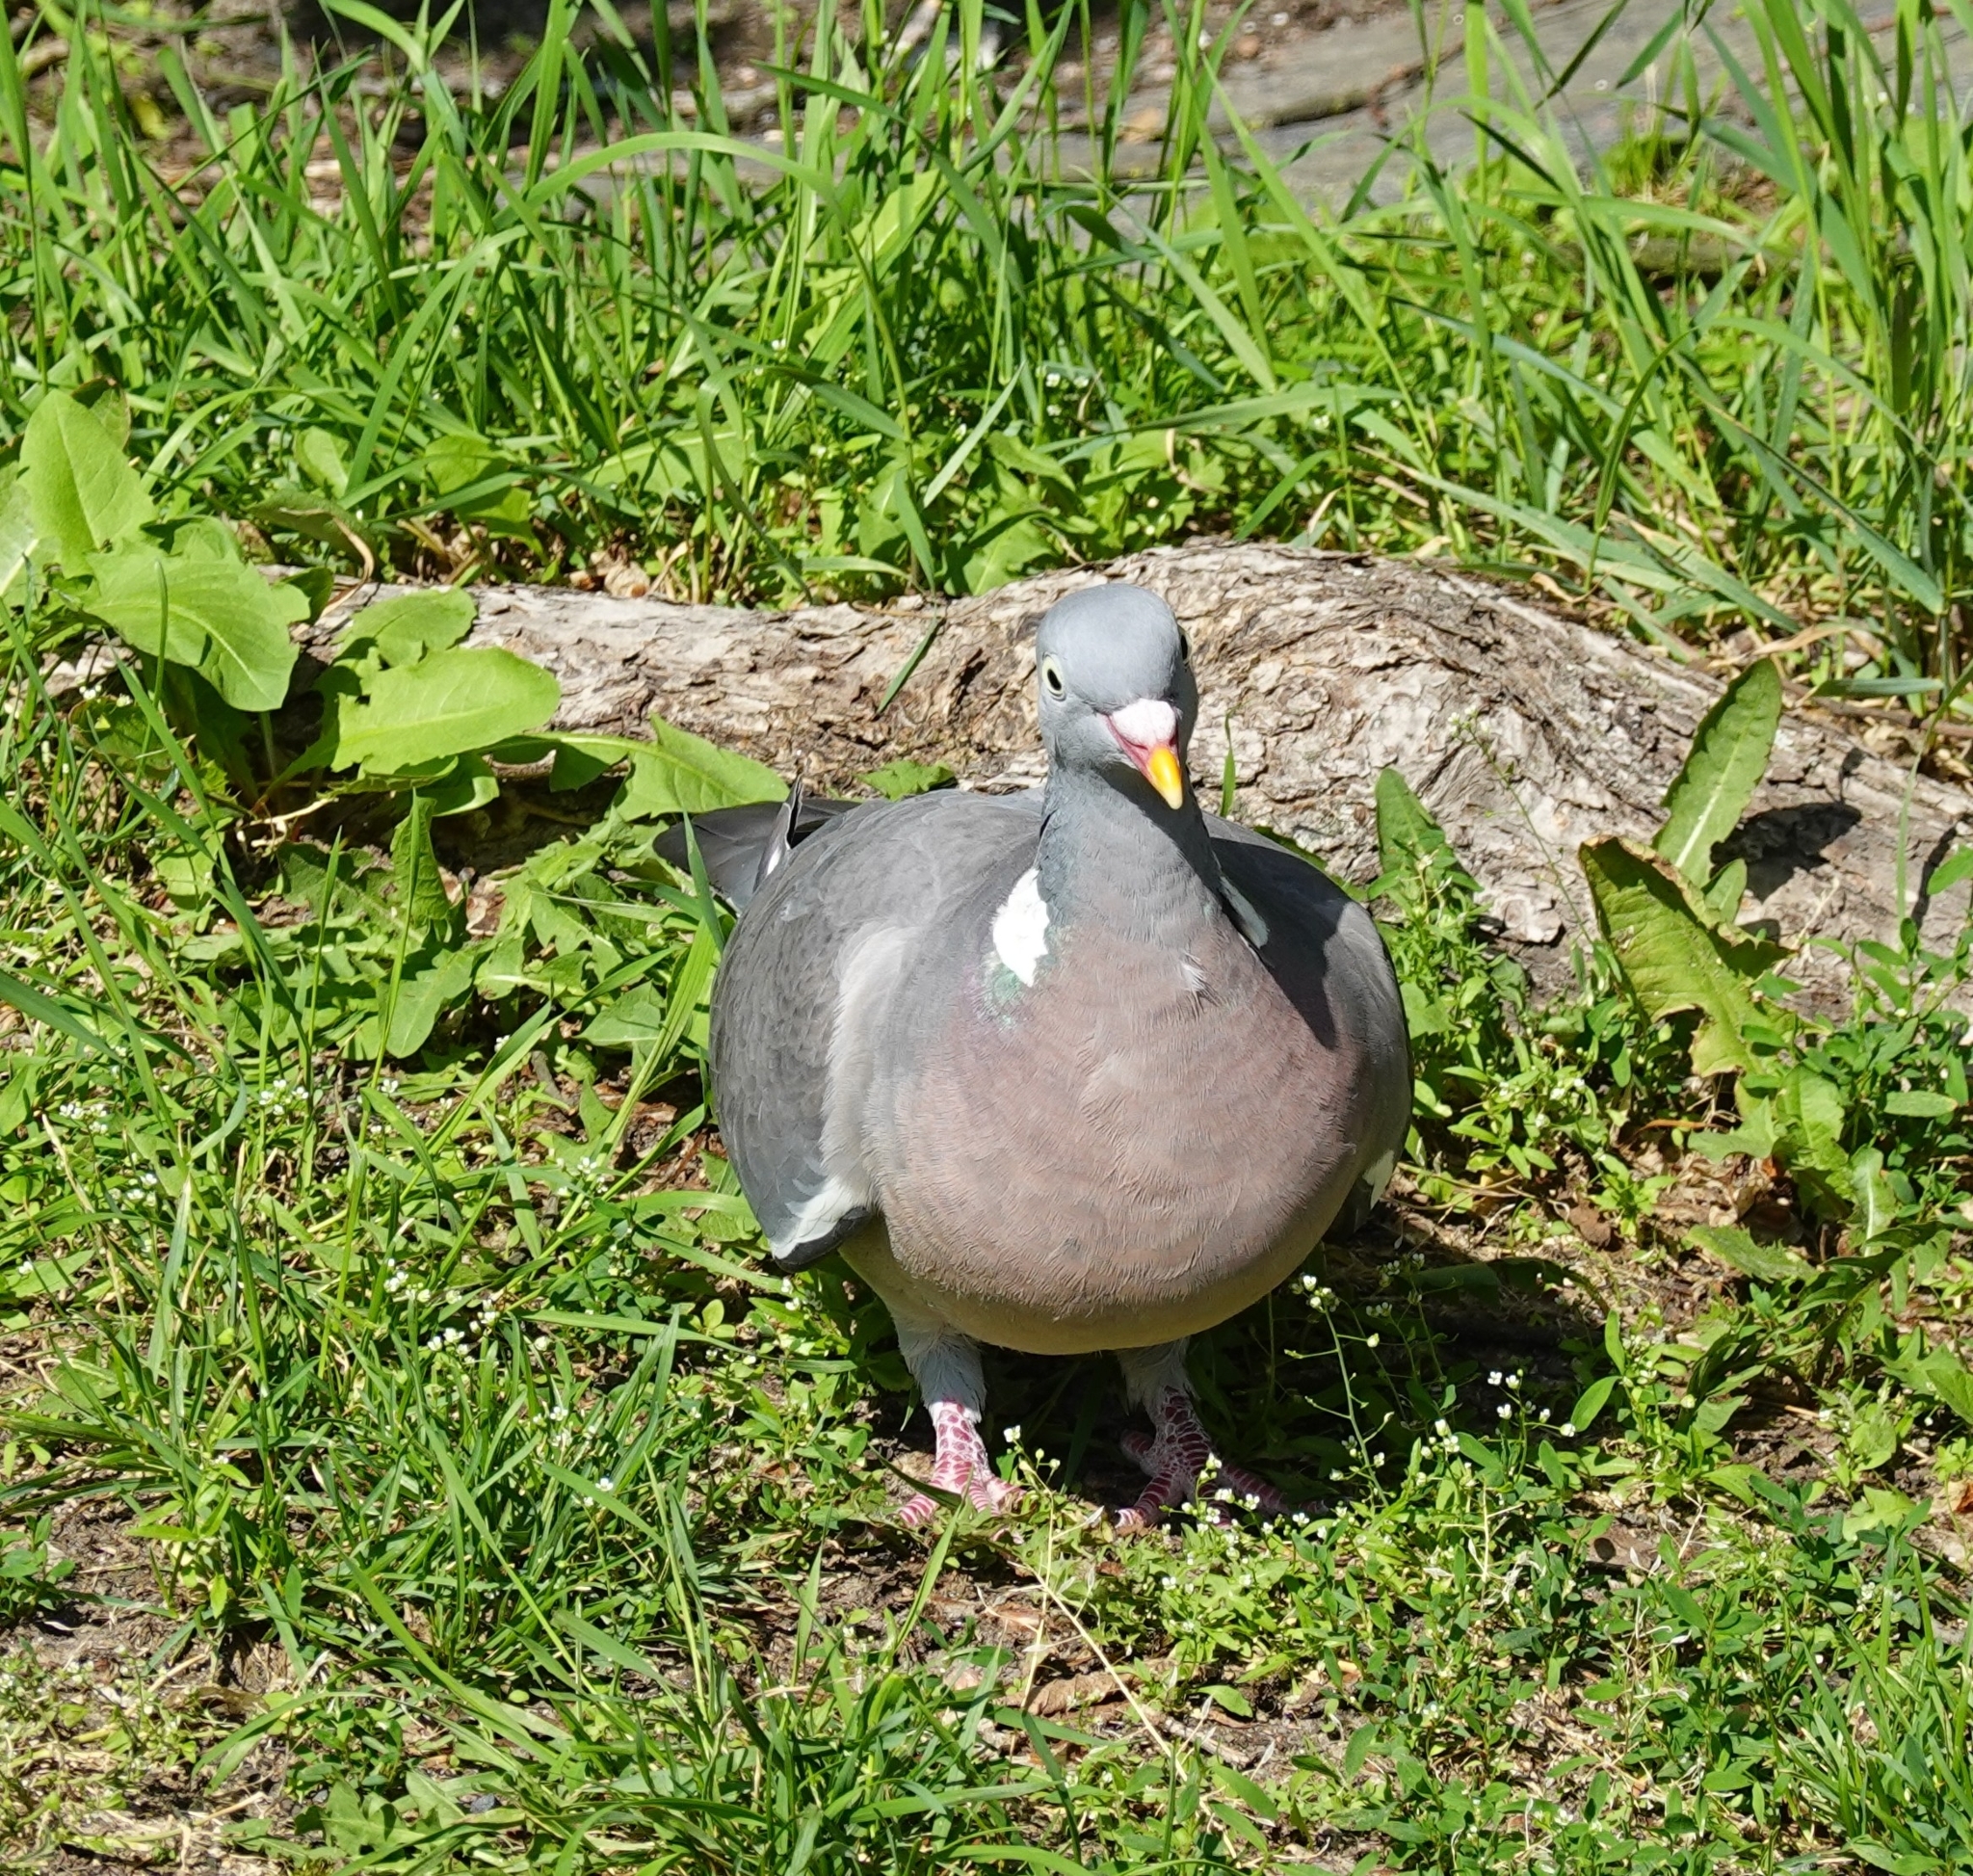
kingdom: Animalia
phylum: Chordata
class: Aves
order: Columbiformes
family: Columbidae
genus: Columba
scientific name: Columba palumbus
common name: Common wood pigeon
